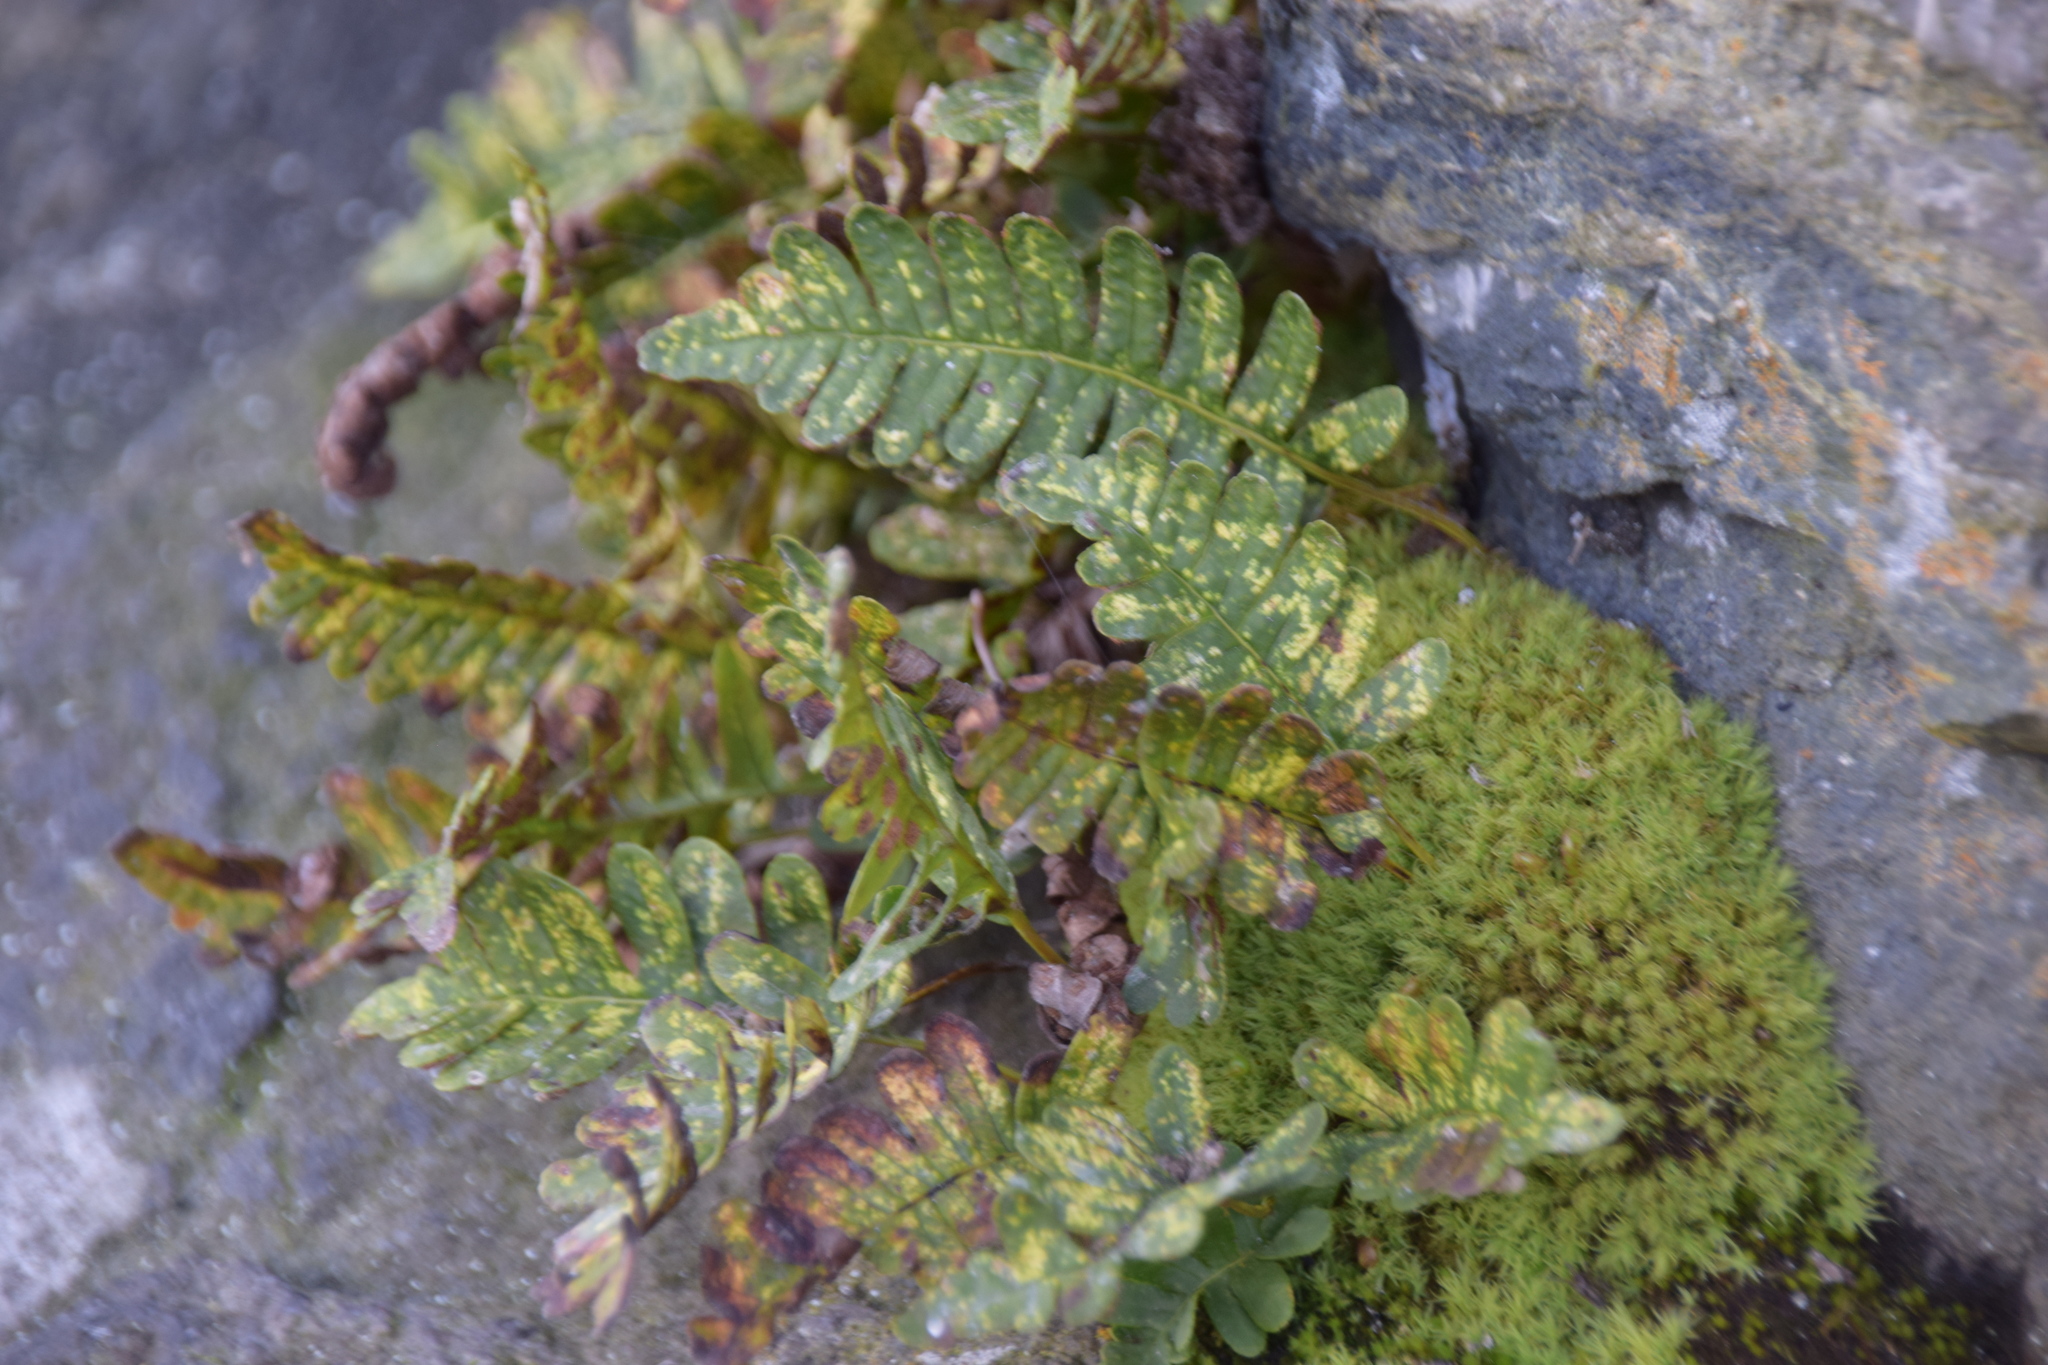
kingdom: Plantae
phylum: Tracheophyta
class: Polypodiopsida
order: Polypodiales
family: Polypodiaceae
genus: Polypodium
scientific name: Polypodium virginianum
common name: American wall fern
